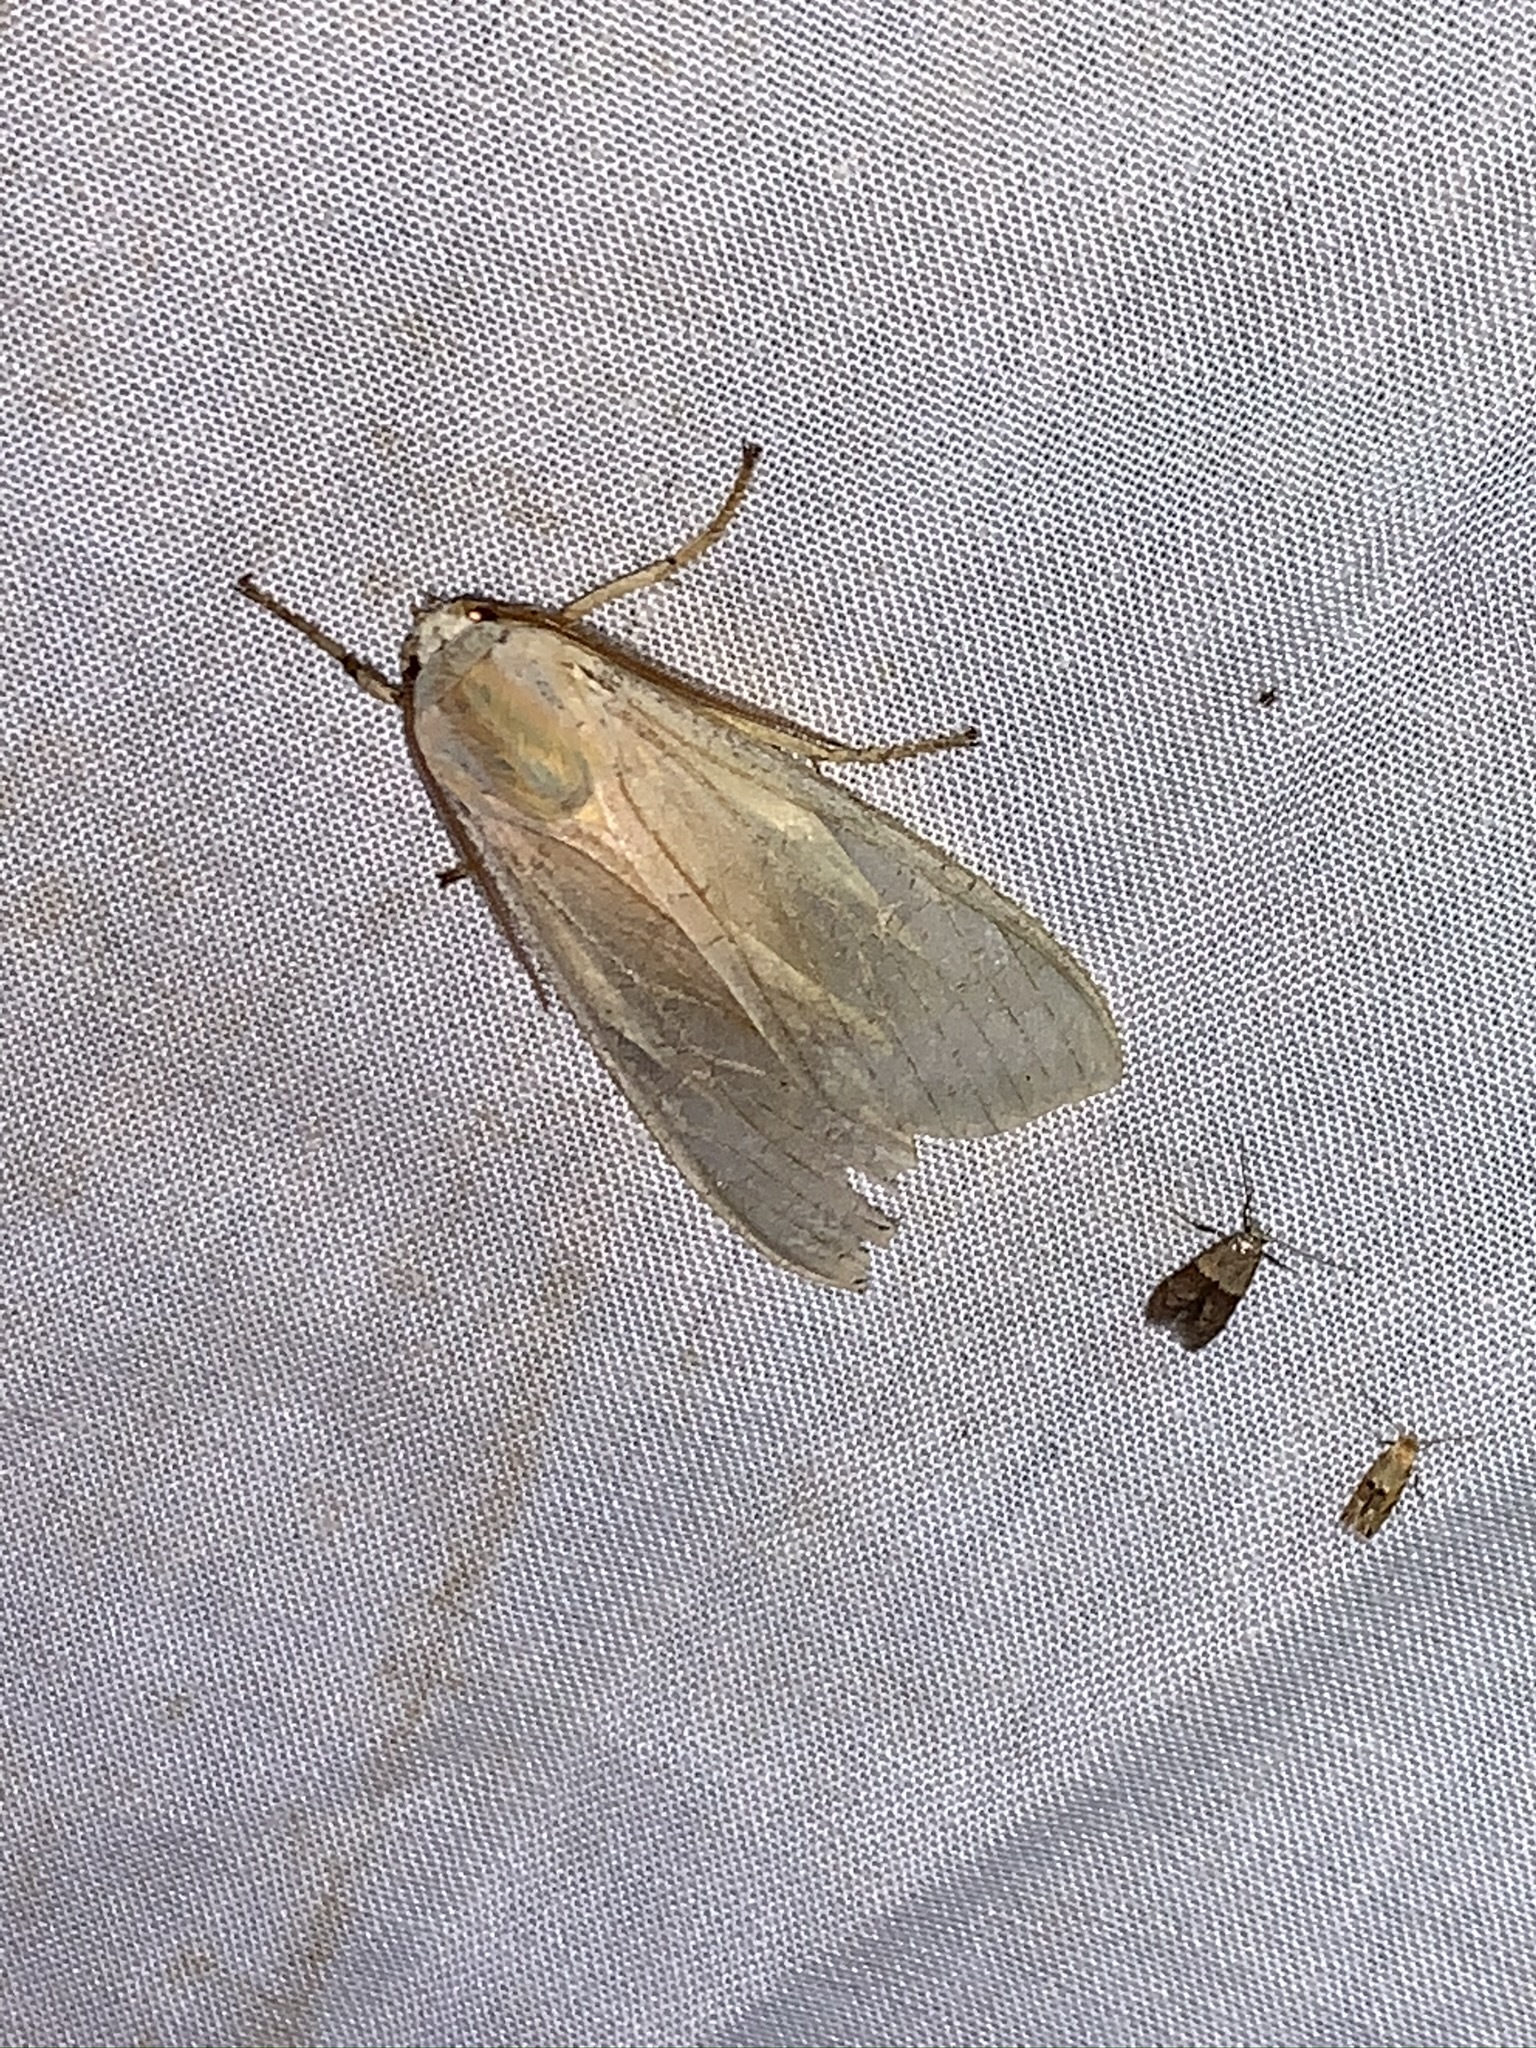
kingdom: Animalia
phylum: Arthropoda
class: Insecta
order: Lepidoptera
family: Erebidae
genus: Halysidota
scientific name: Halysidota
